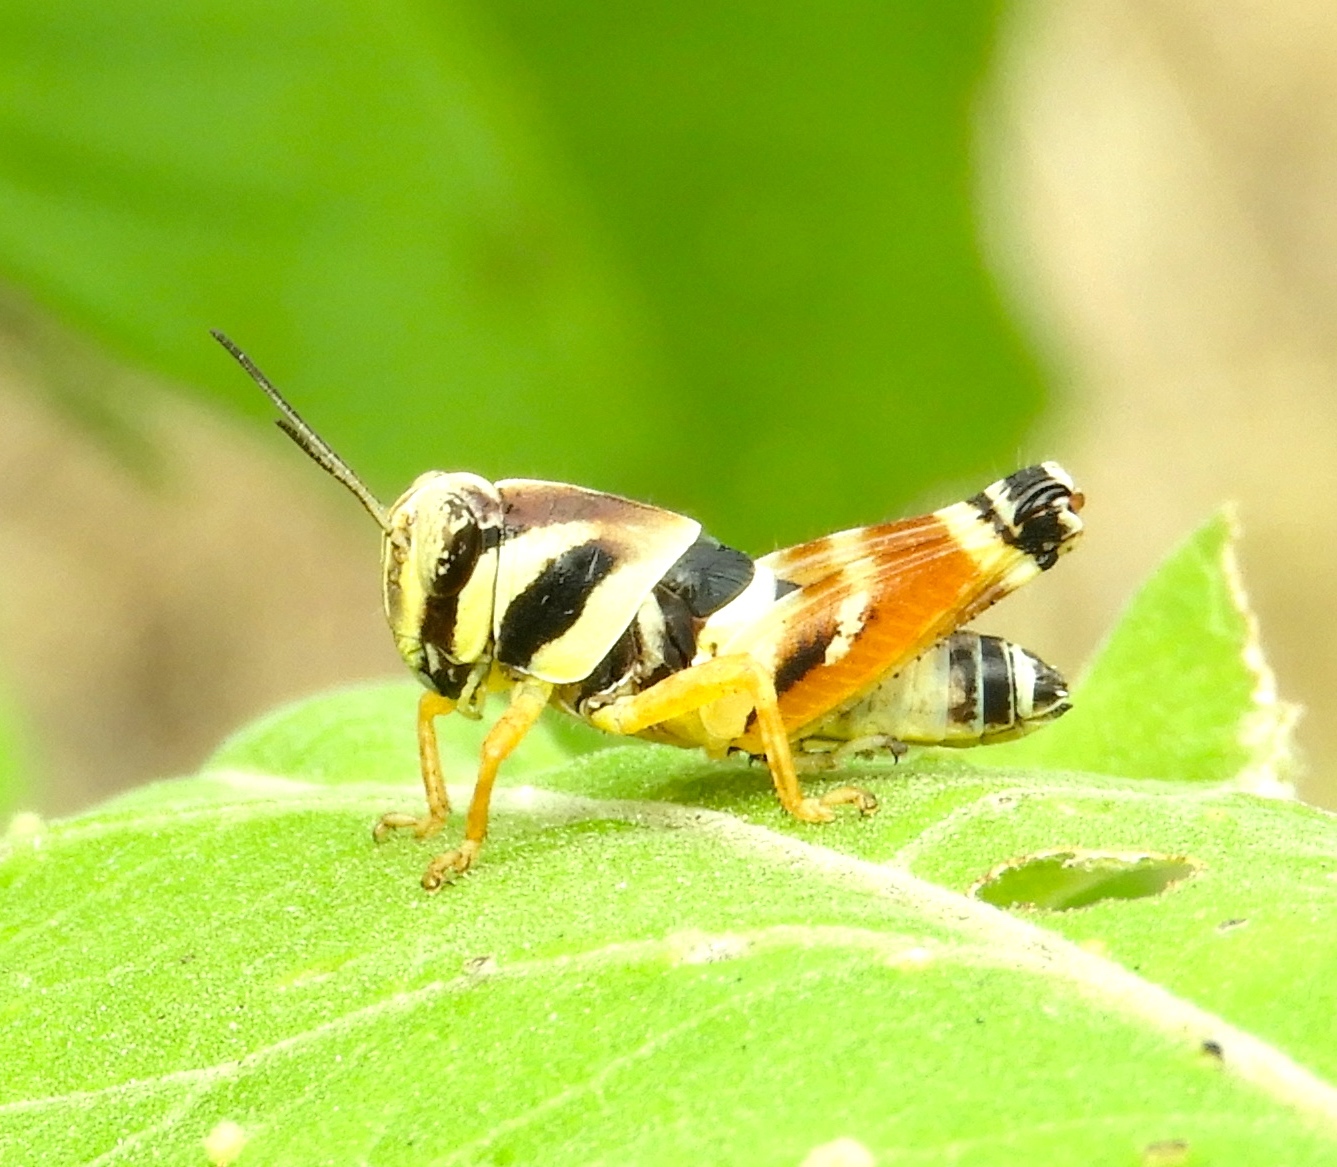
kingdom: Animalia
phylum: Arthropoda
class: Insecta
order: Orthoptera
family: Acrididae
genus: Aidemona
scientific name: Aidemona azteca
